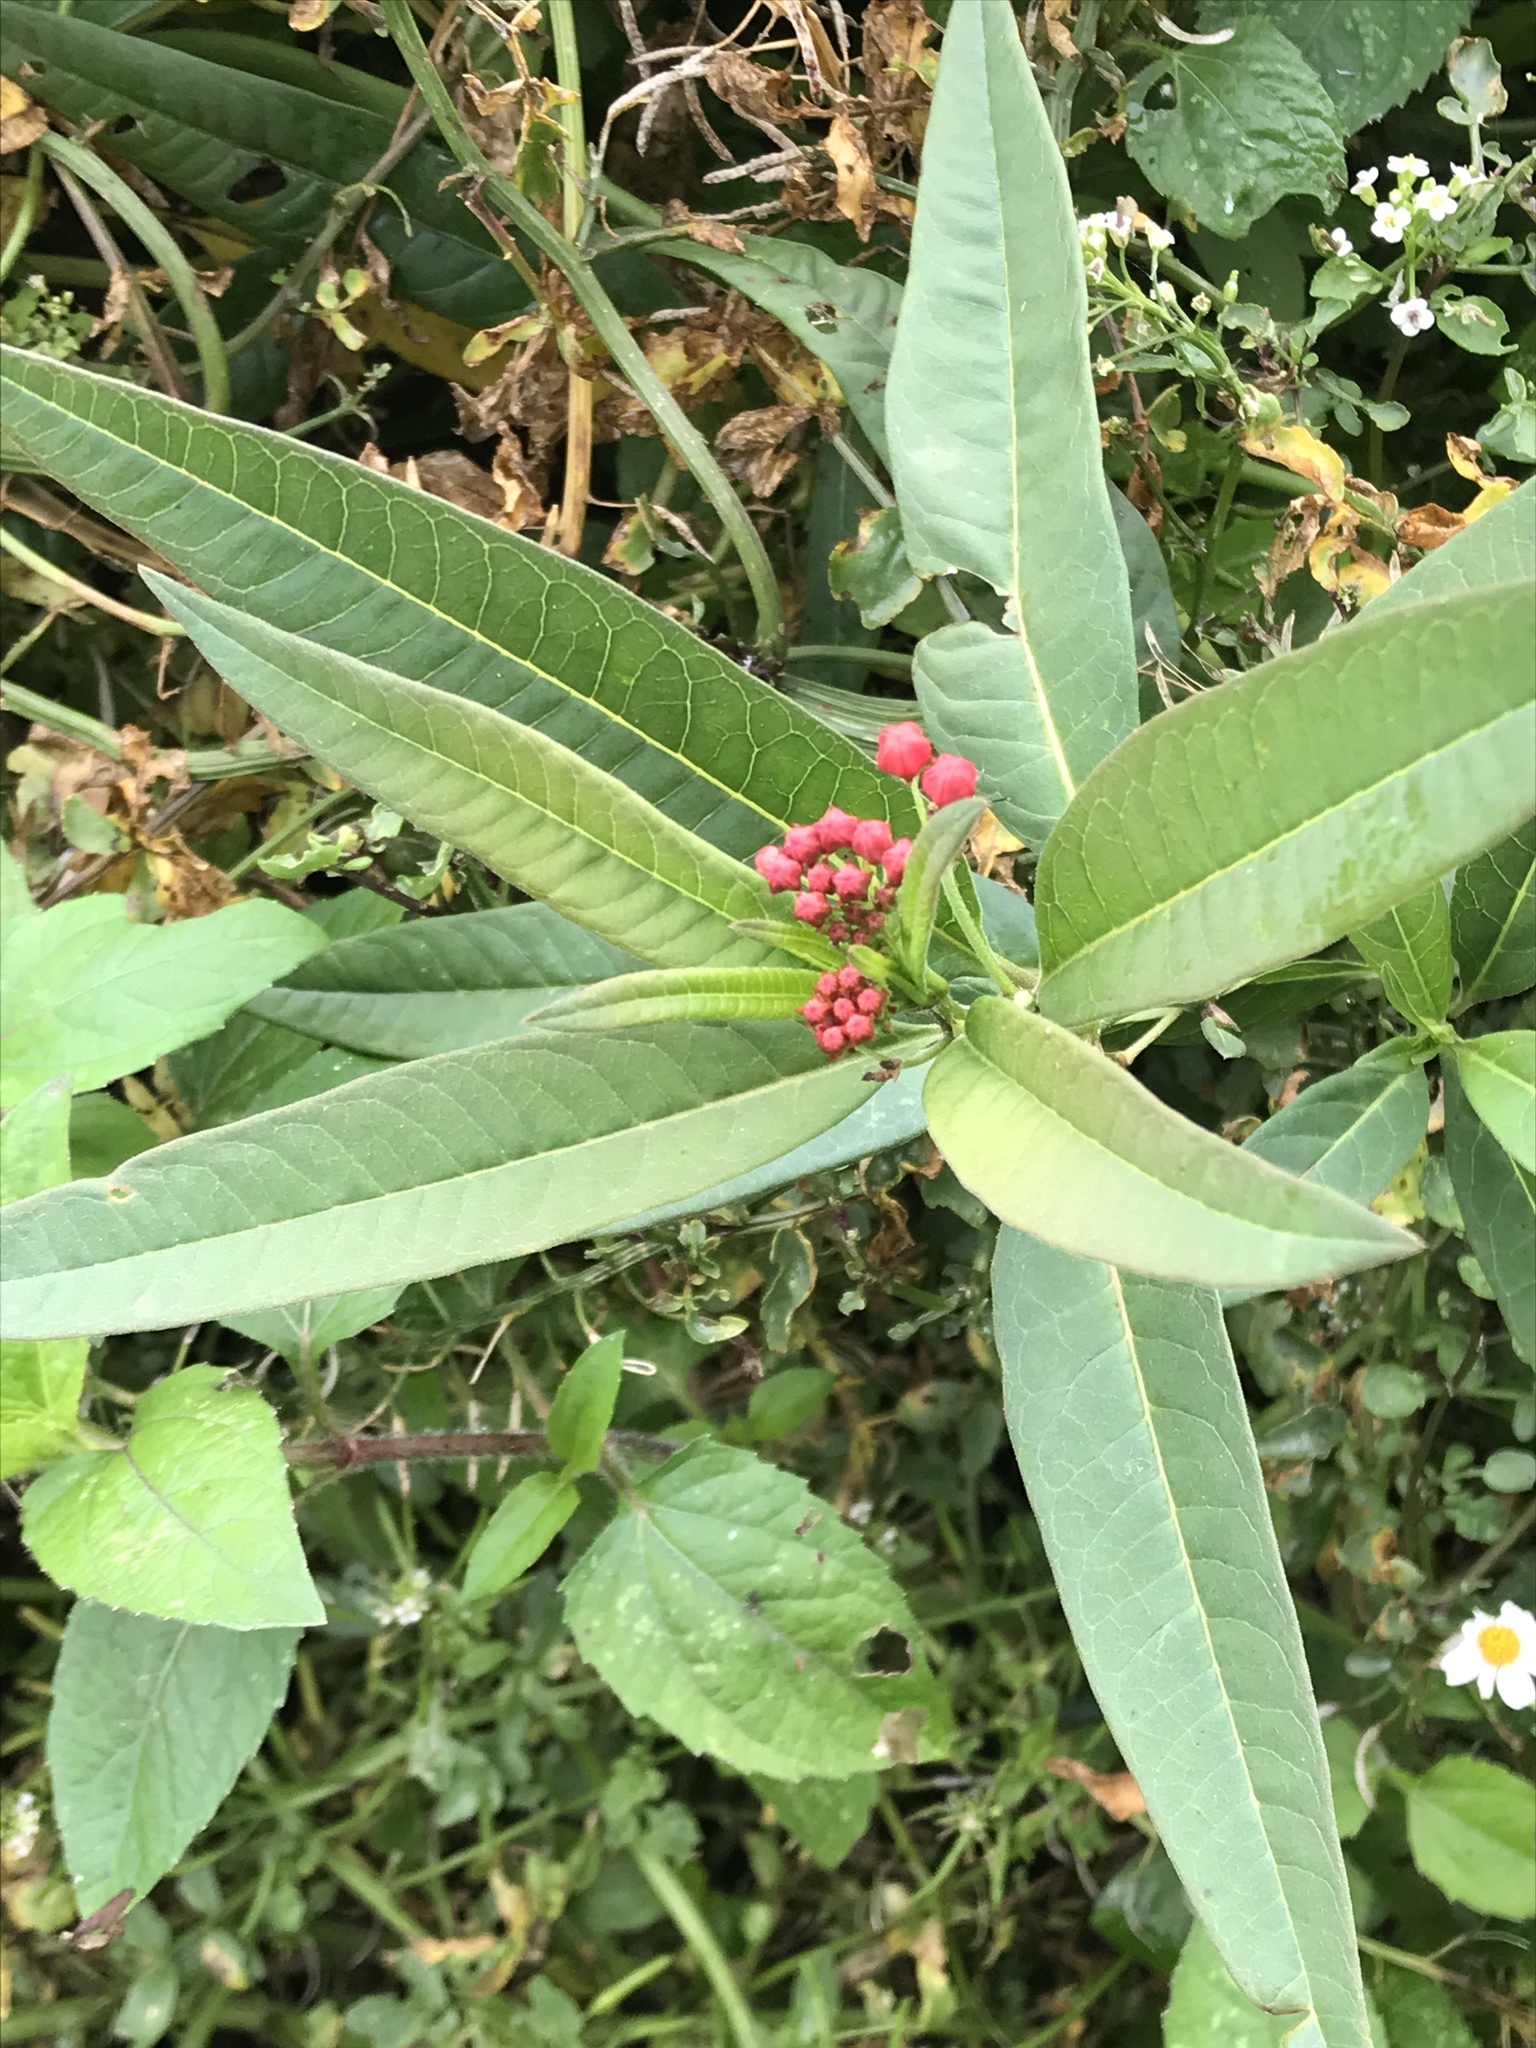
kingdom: Plantae
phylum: Tracheophyta
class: Magnoliopsida
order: Gentianales
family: Apocynaceae
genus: Asclepias
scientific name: Asclepias curassavica
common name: Bloodflower
